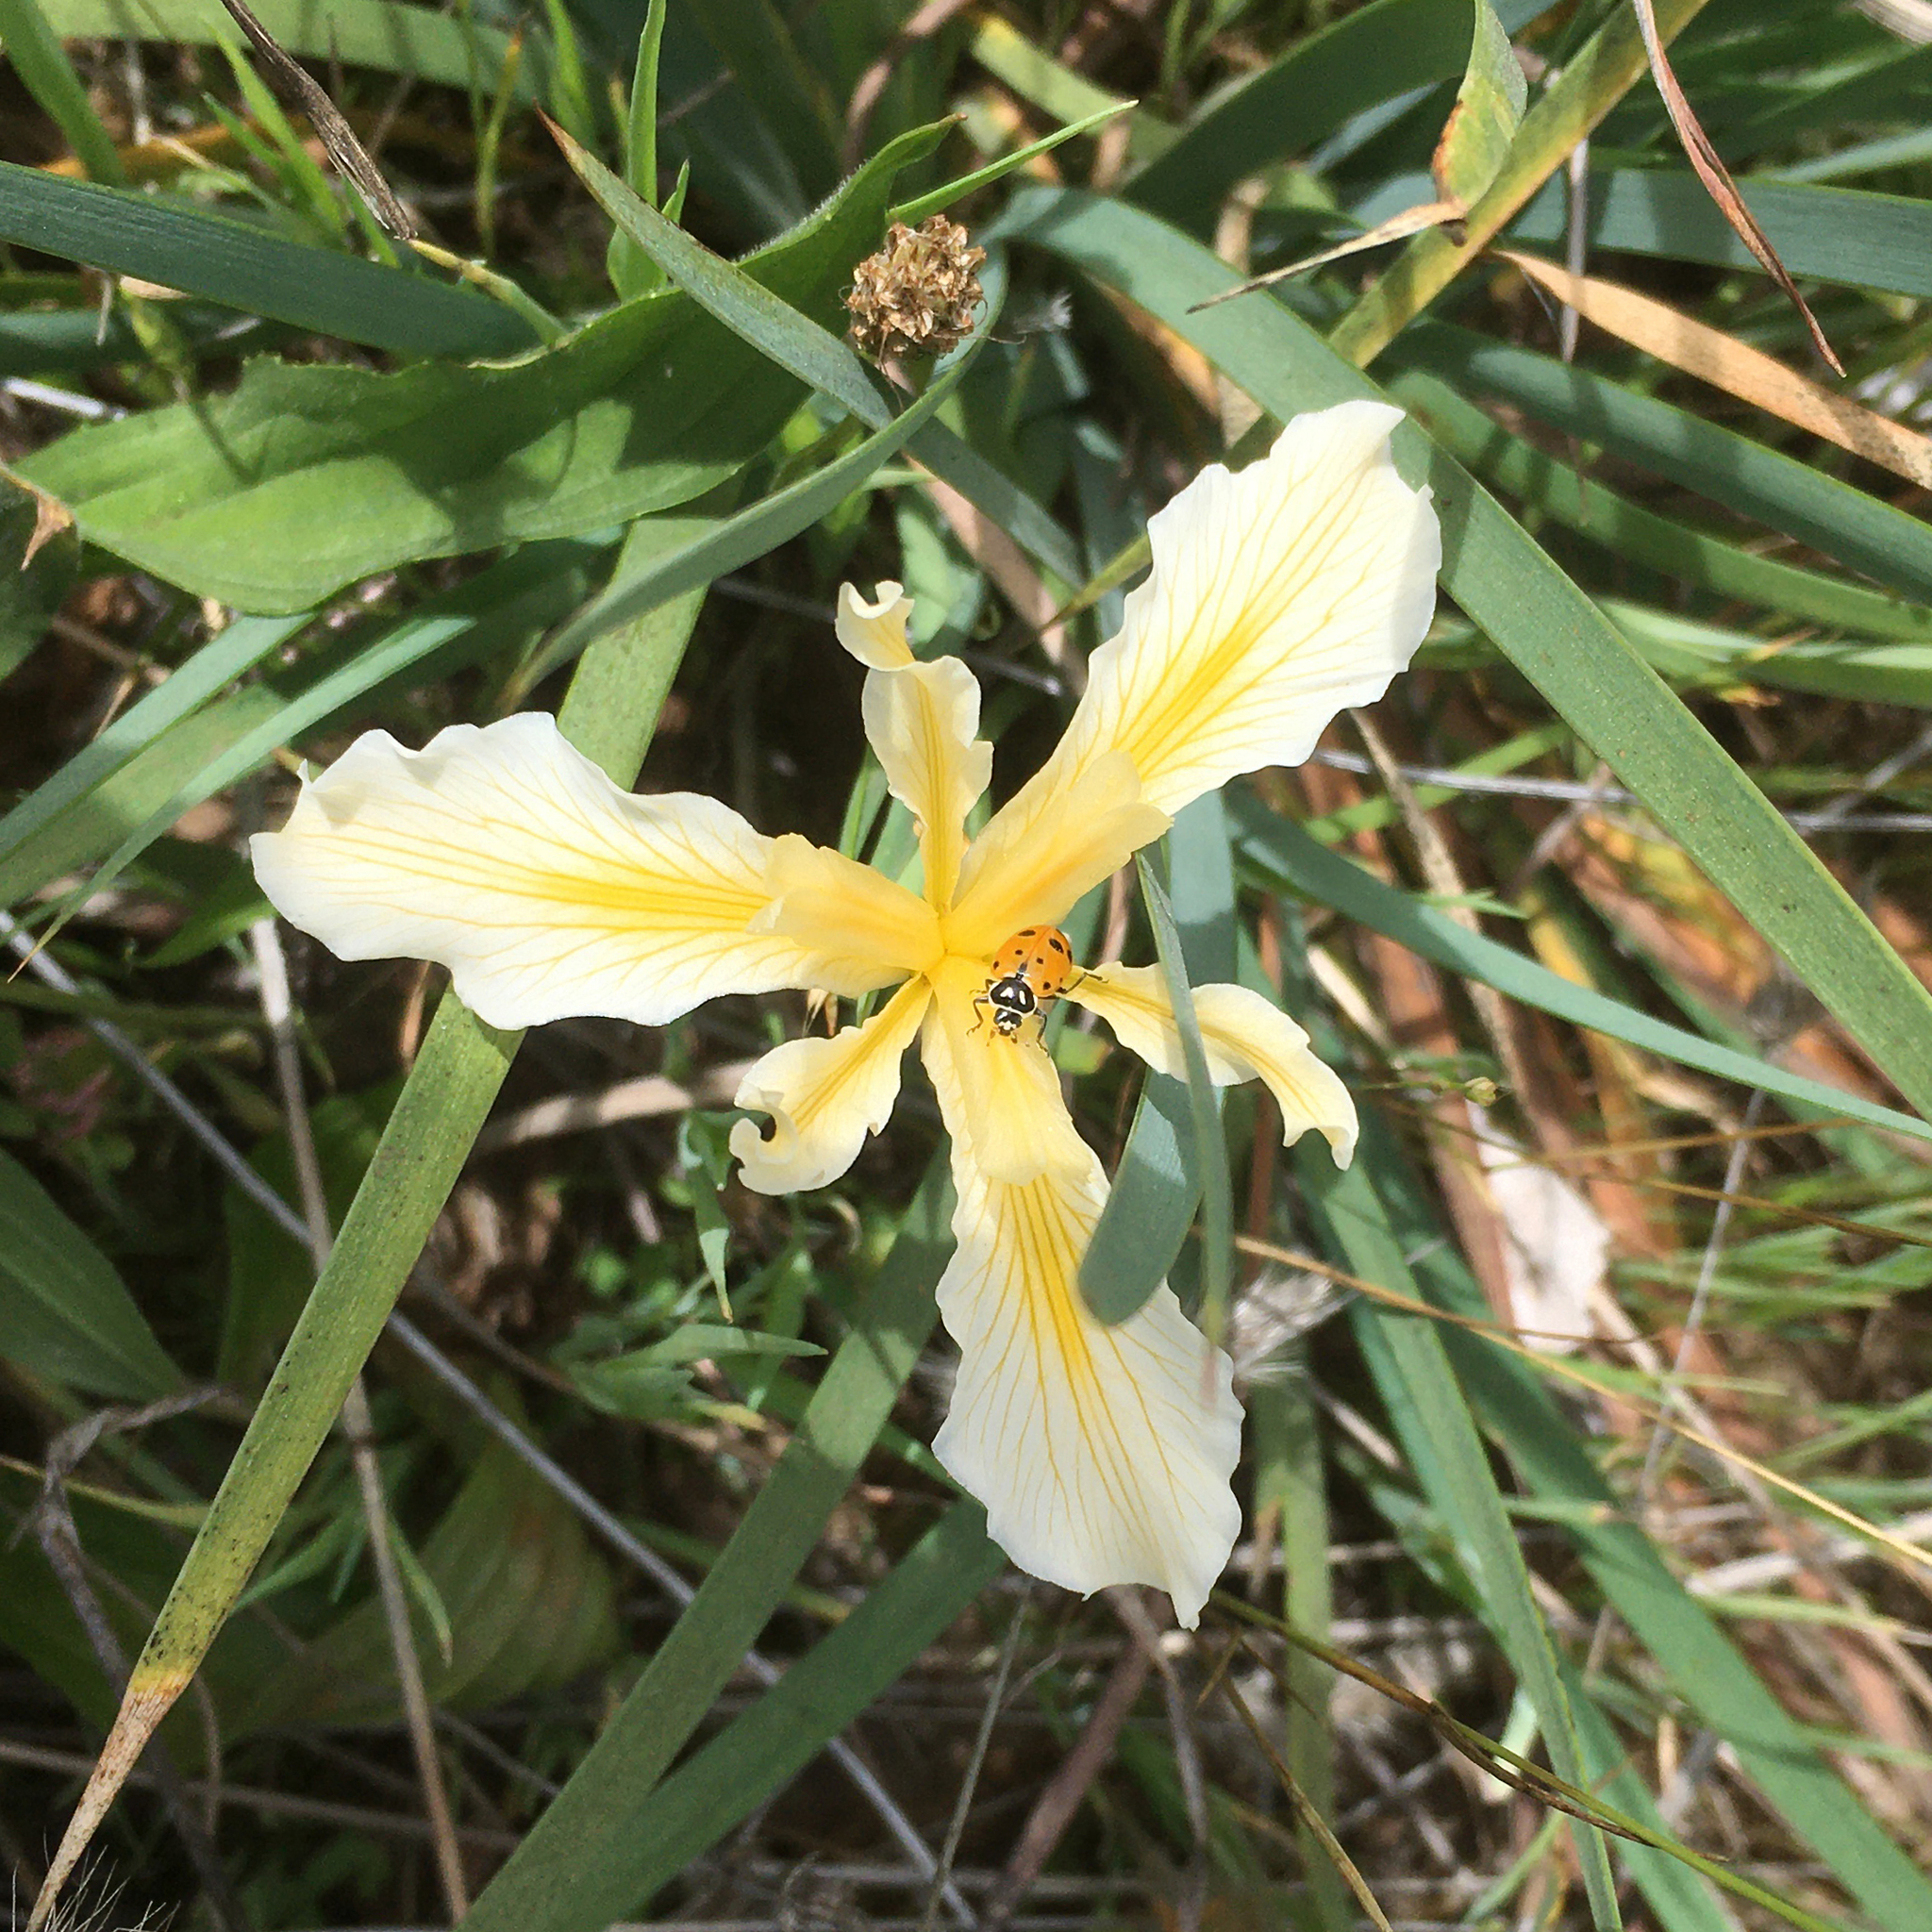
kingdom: Plantae
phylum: Tracheophyta
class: Liliopsida
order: Asparagales
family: Iridaceae
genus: Iris
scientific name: Iris hartwegii
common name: Sierra iris
